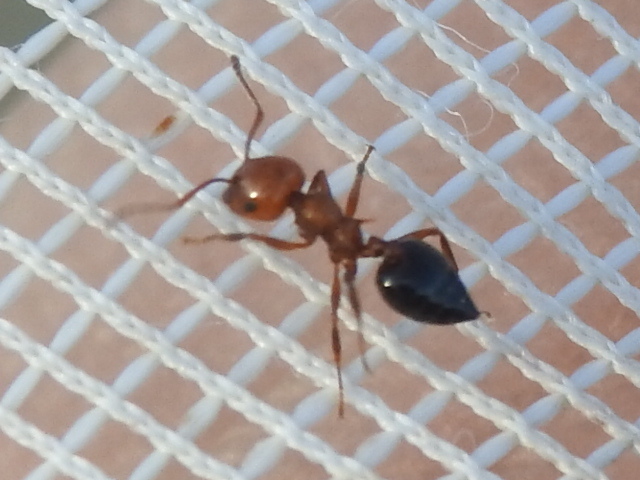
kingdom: Animalia
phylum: Arthropoda
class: Insecta
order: Hymenoptera
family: Formicidae
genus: Crematogaster
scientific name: Crematogaster laeviuscula
